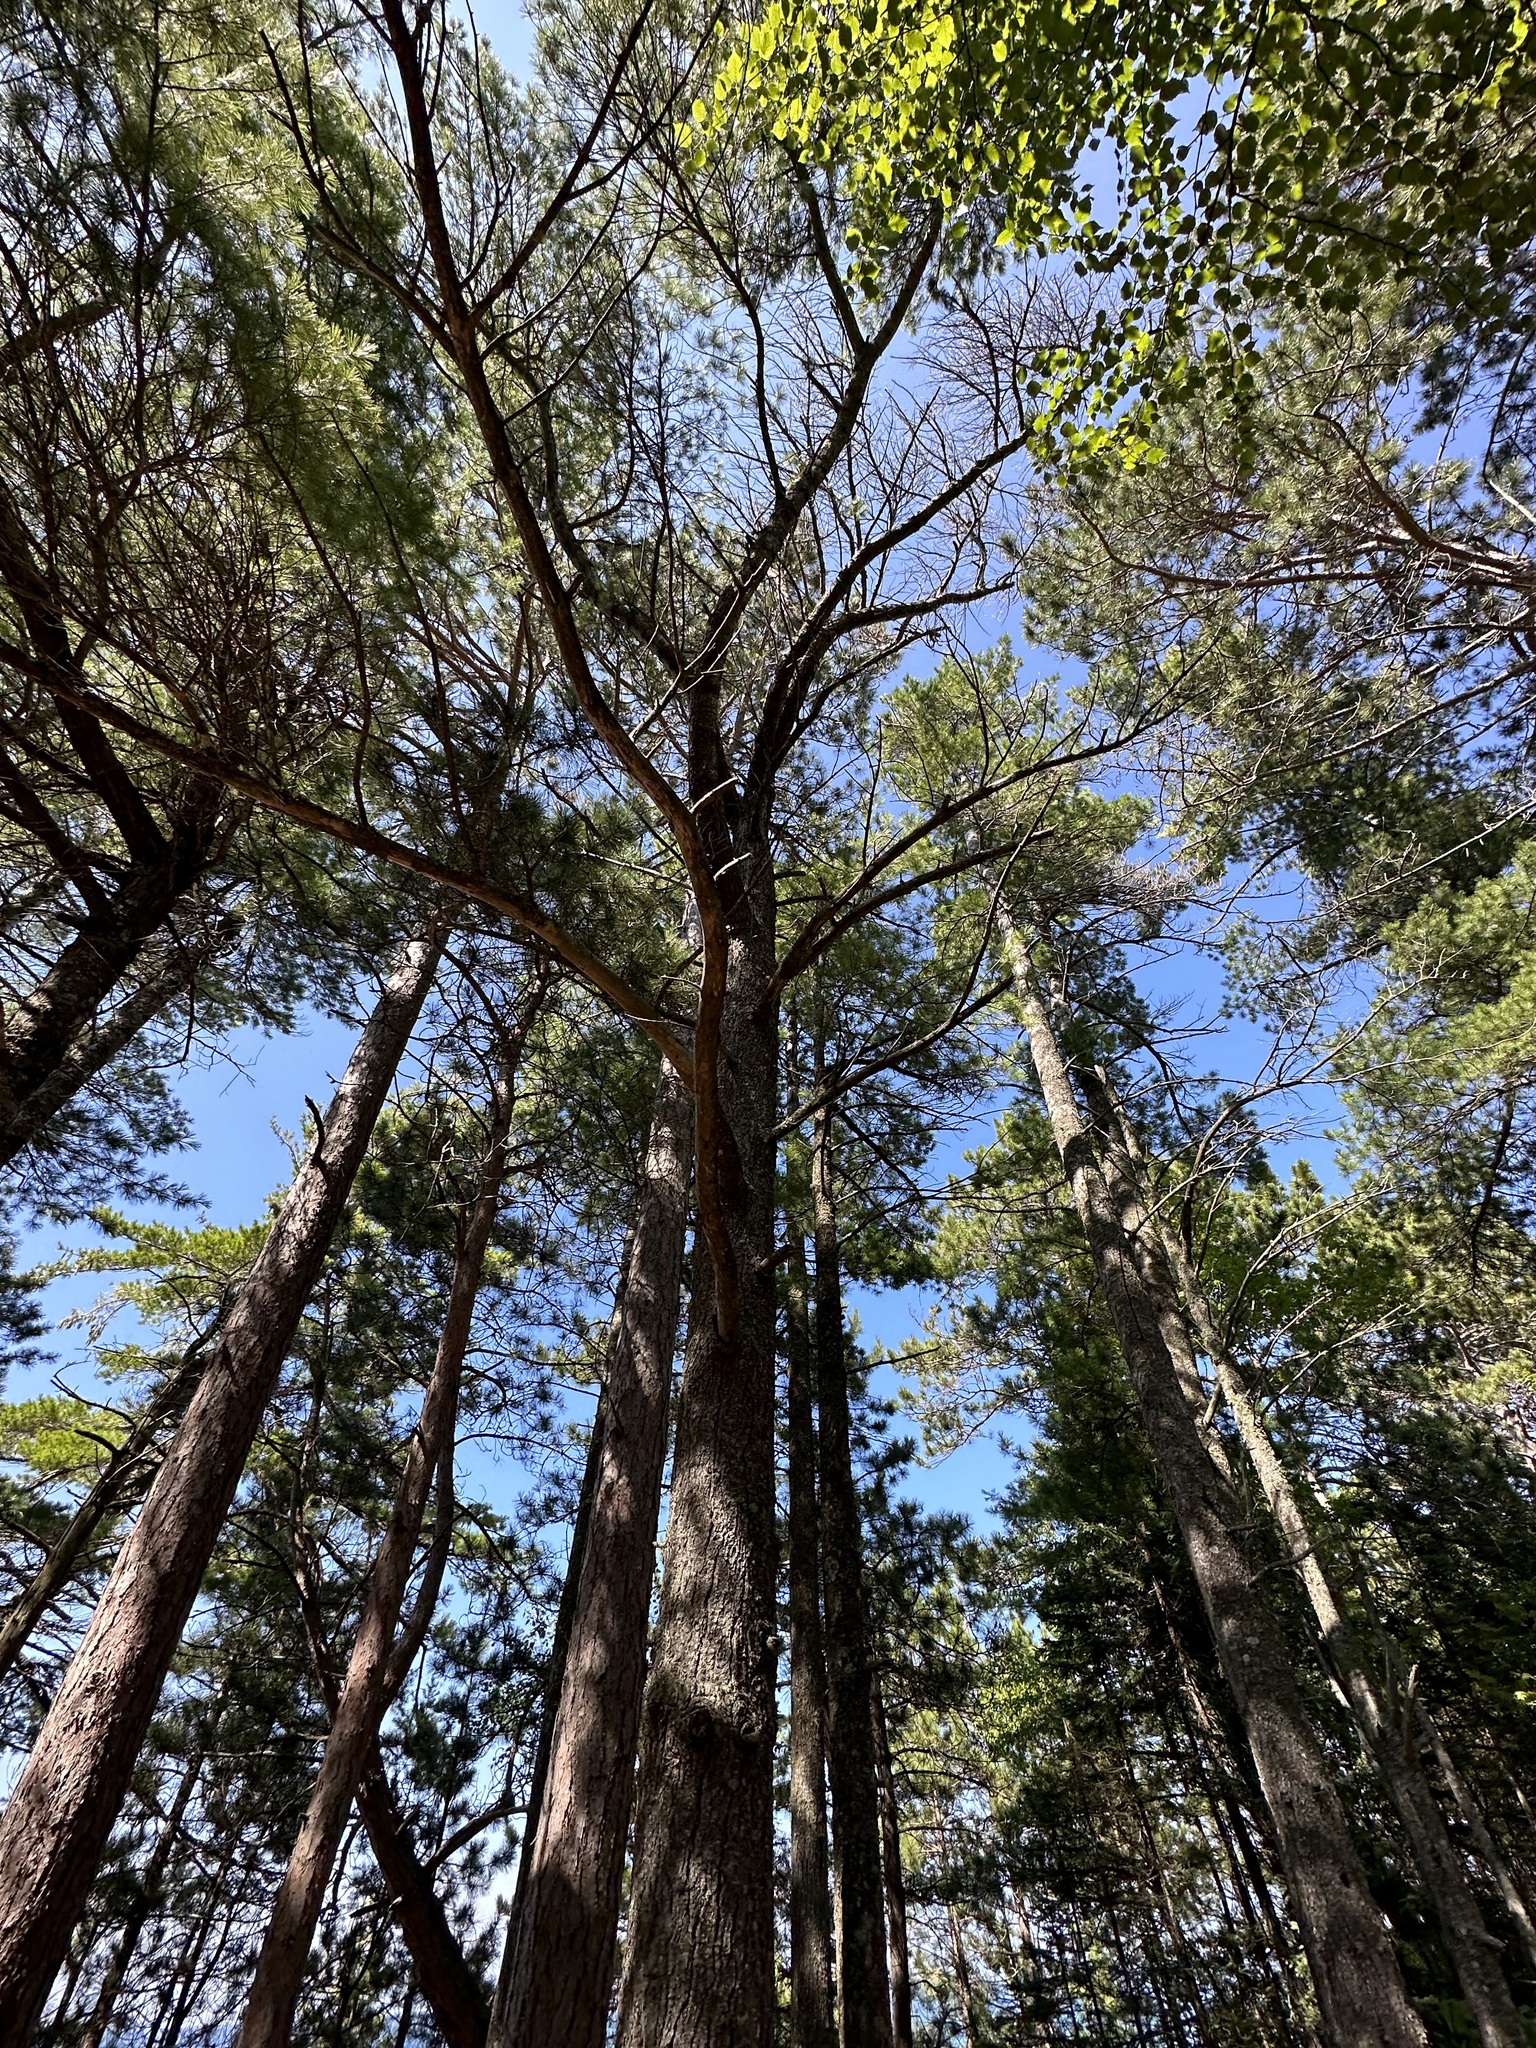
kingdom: Plantae
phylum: Tracheophyta
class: Pinopsida
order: Pinales
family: Pinaceae
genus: Pinus
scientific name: Pinus strobus
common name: Weymouth pine
